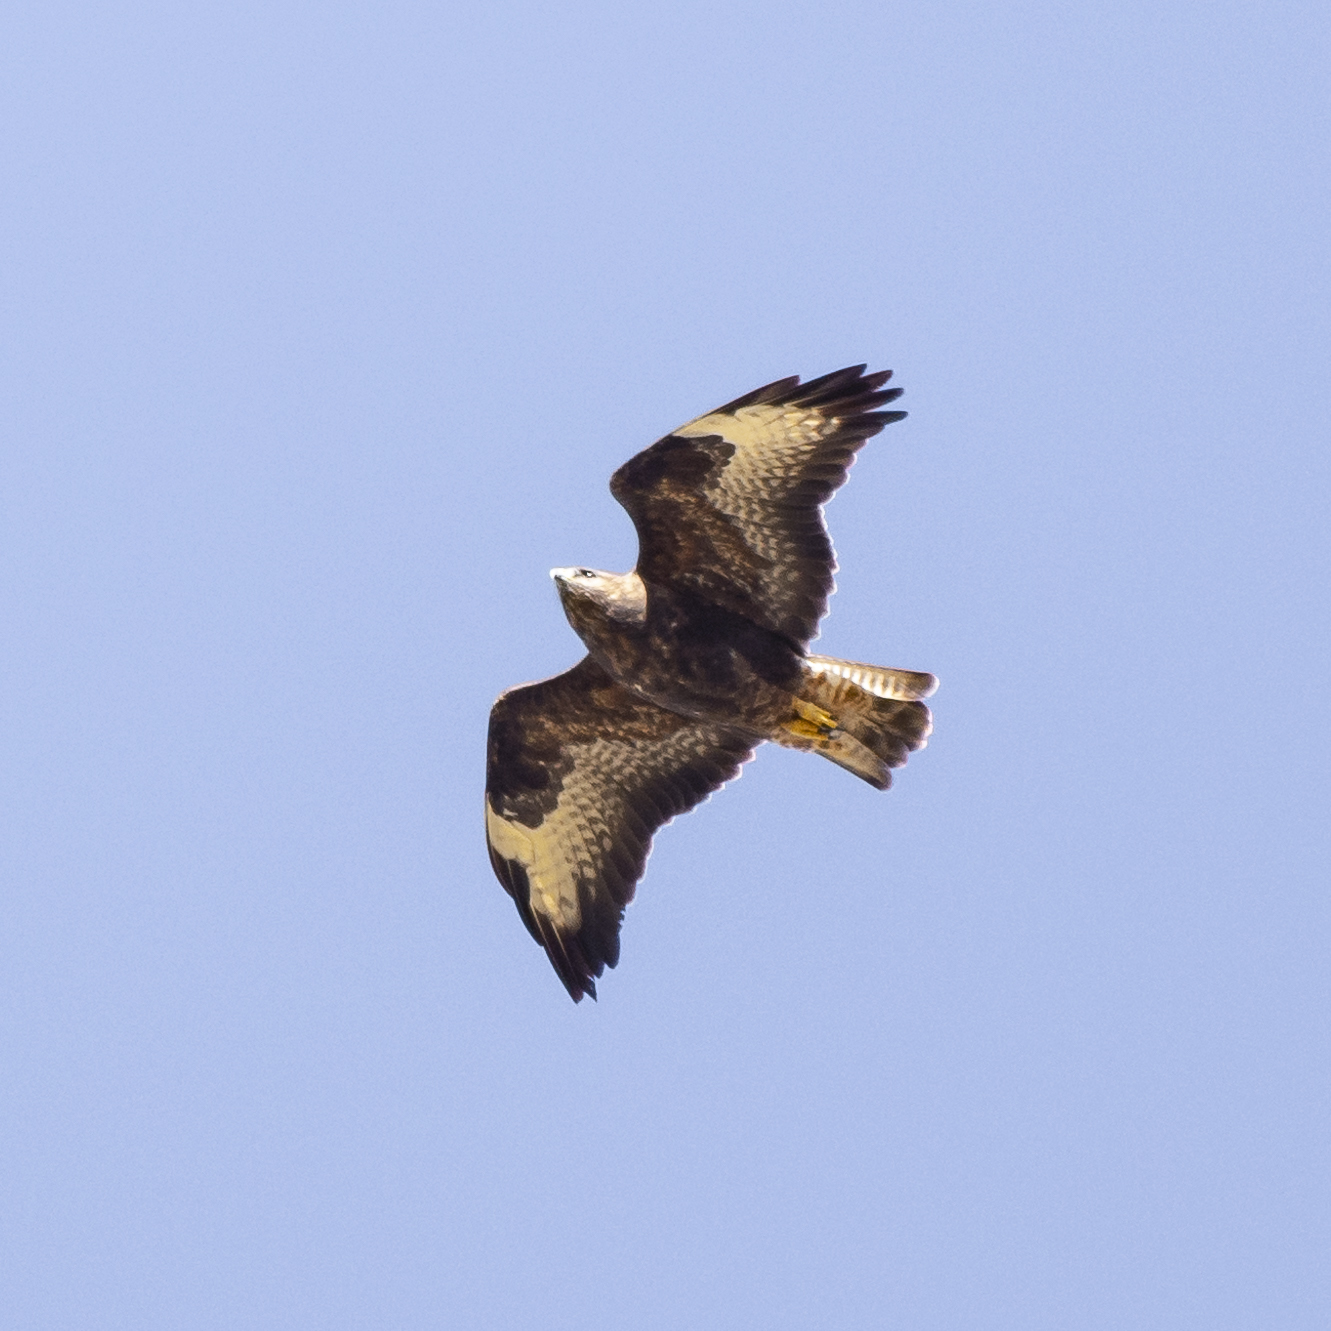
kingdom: Animalia
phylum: Chordata
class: Aves
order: Accipitriformes
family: Accipitridae
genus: Buteo
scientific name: Buteo buteo
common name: Common buzzard
